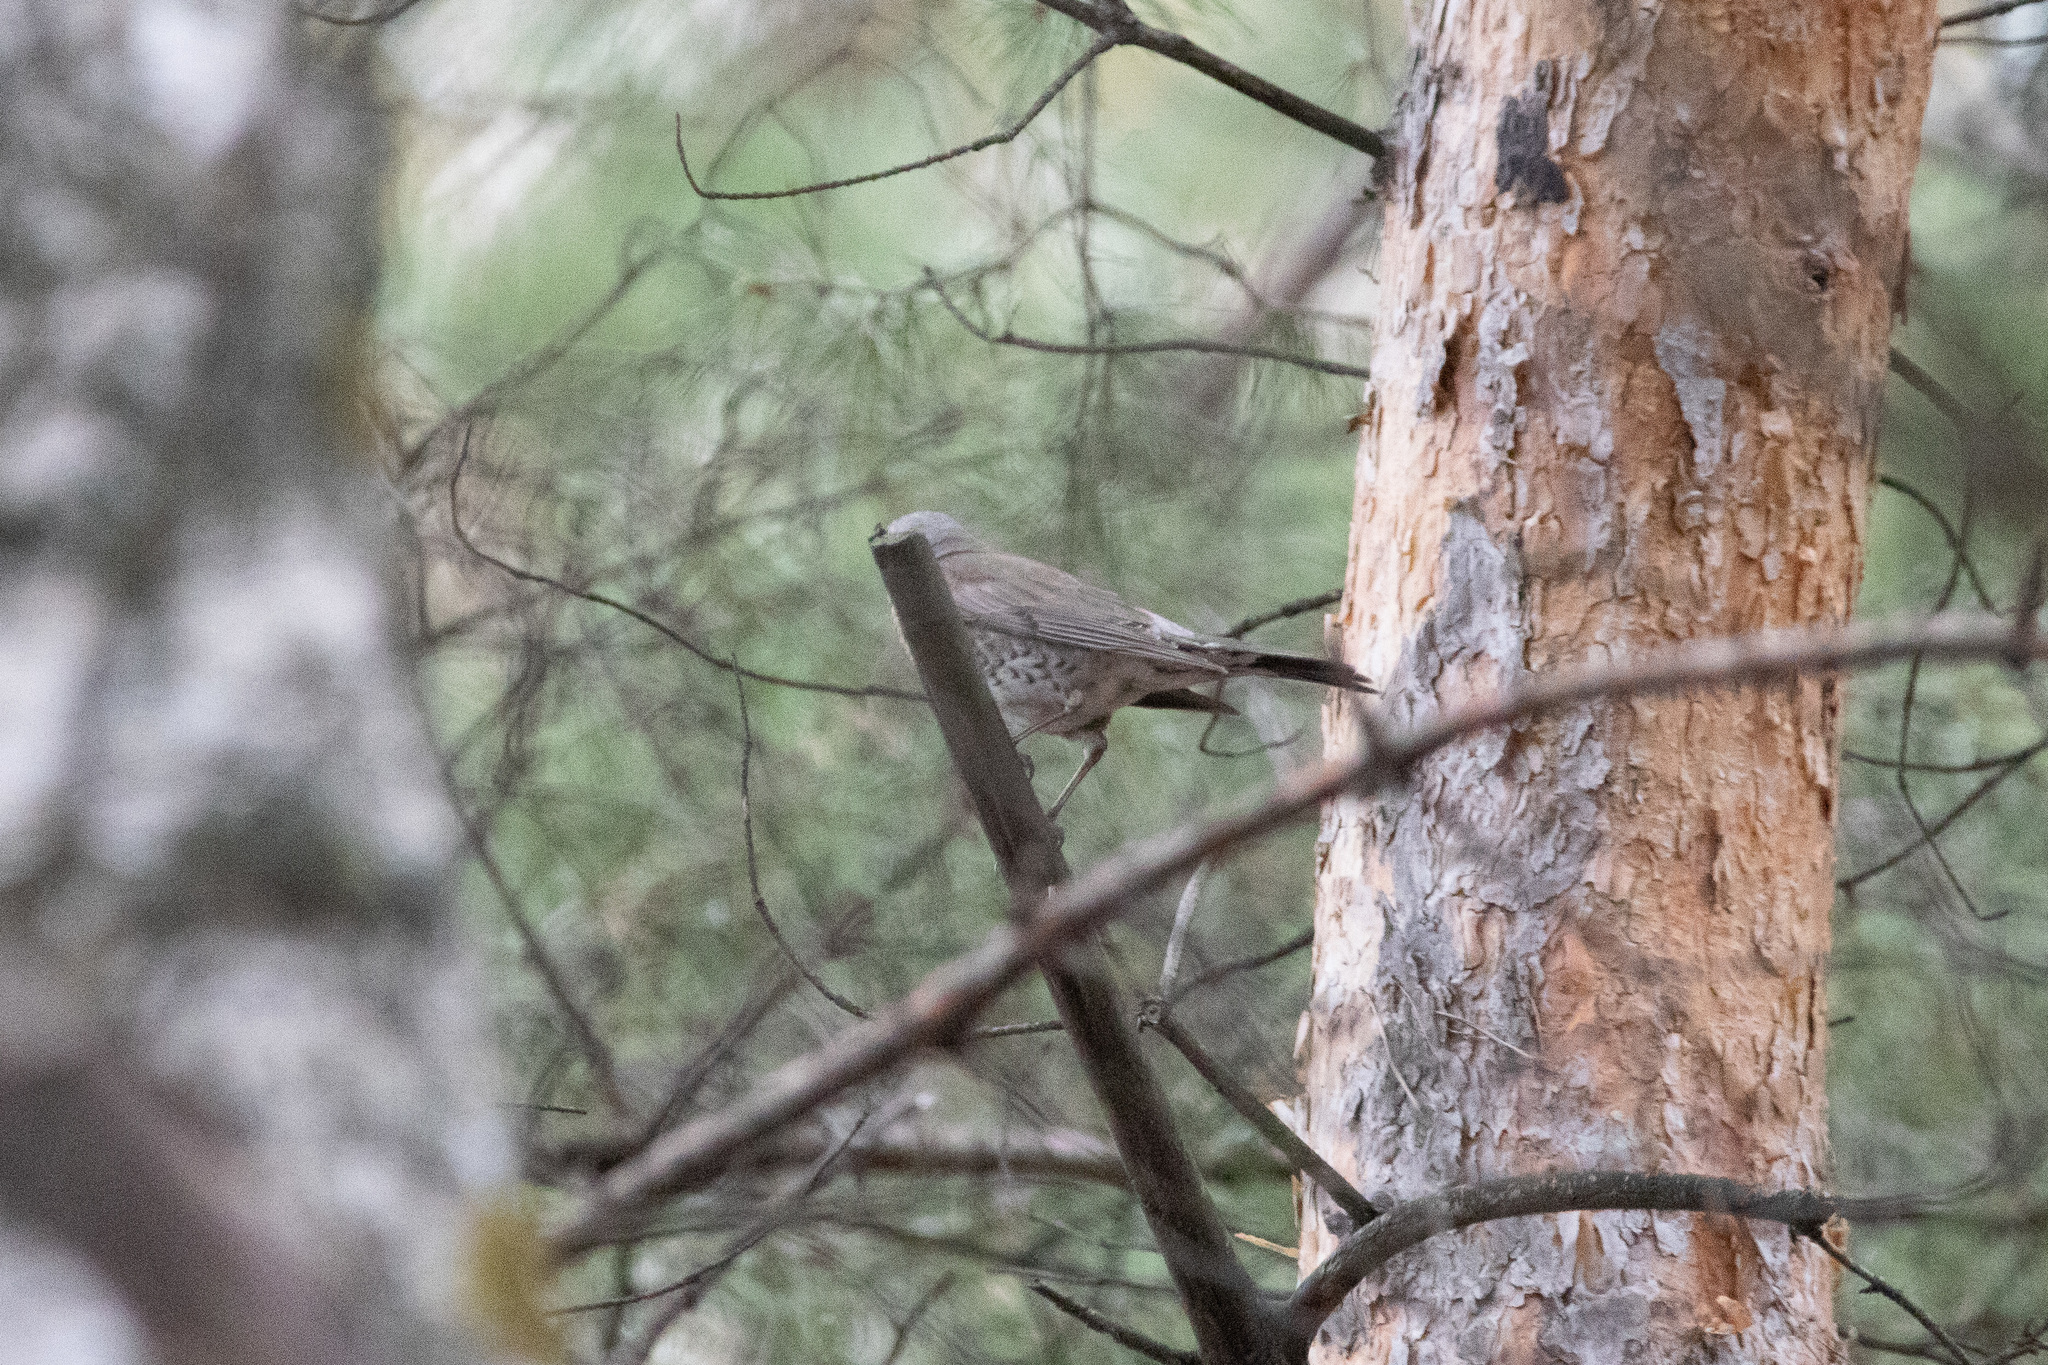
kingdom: Animalia
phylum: Chordata
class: Aves
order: Passeriformes
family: Turdidae
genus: Turdus
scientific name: Turdus pilaris
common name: Fieldfare
